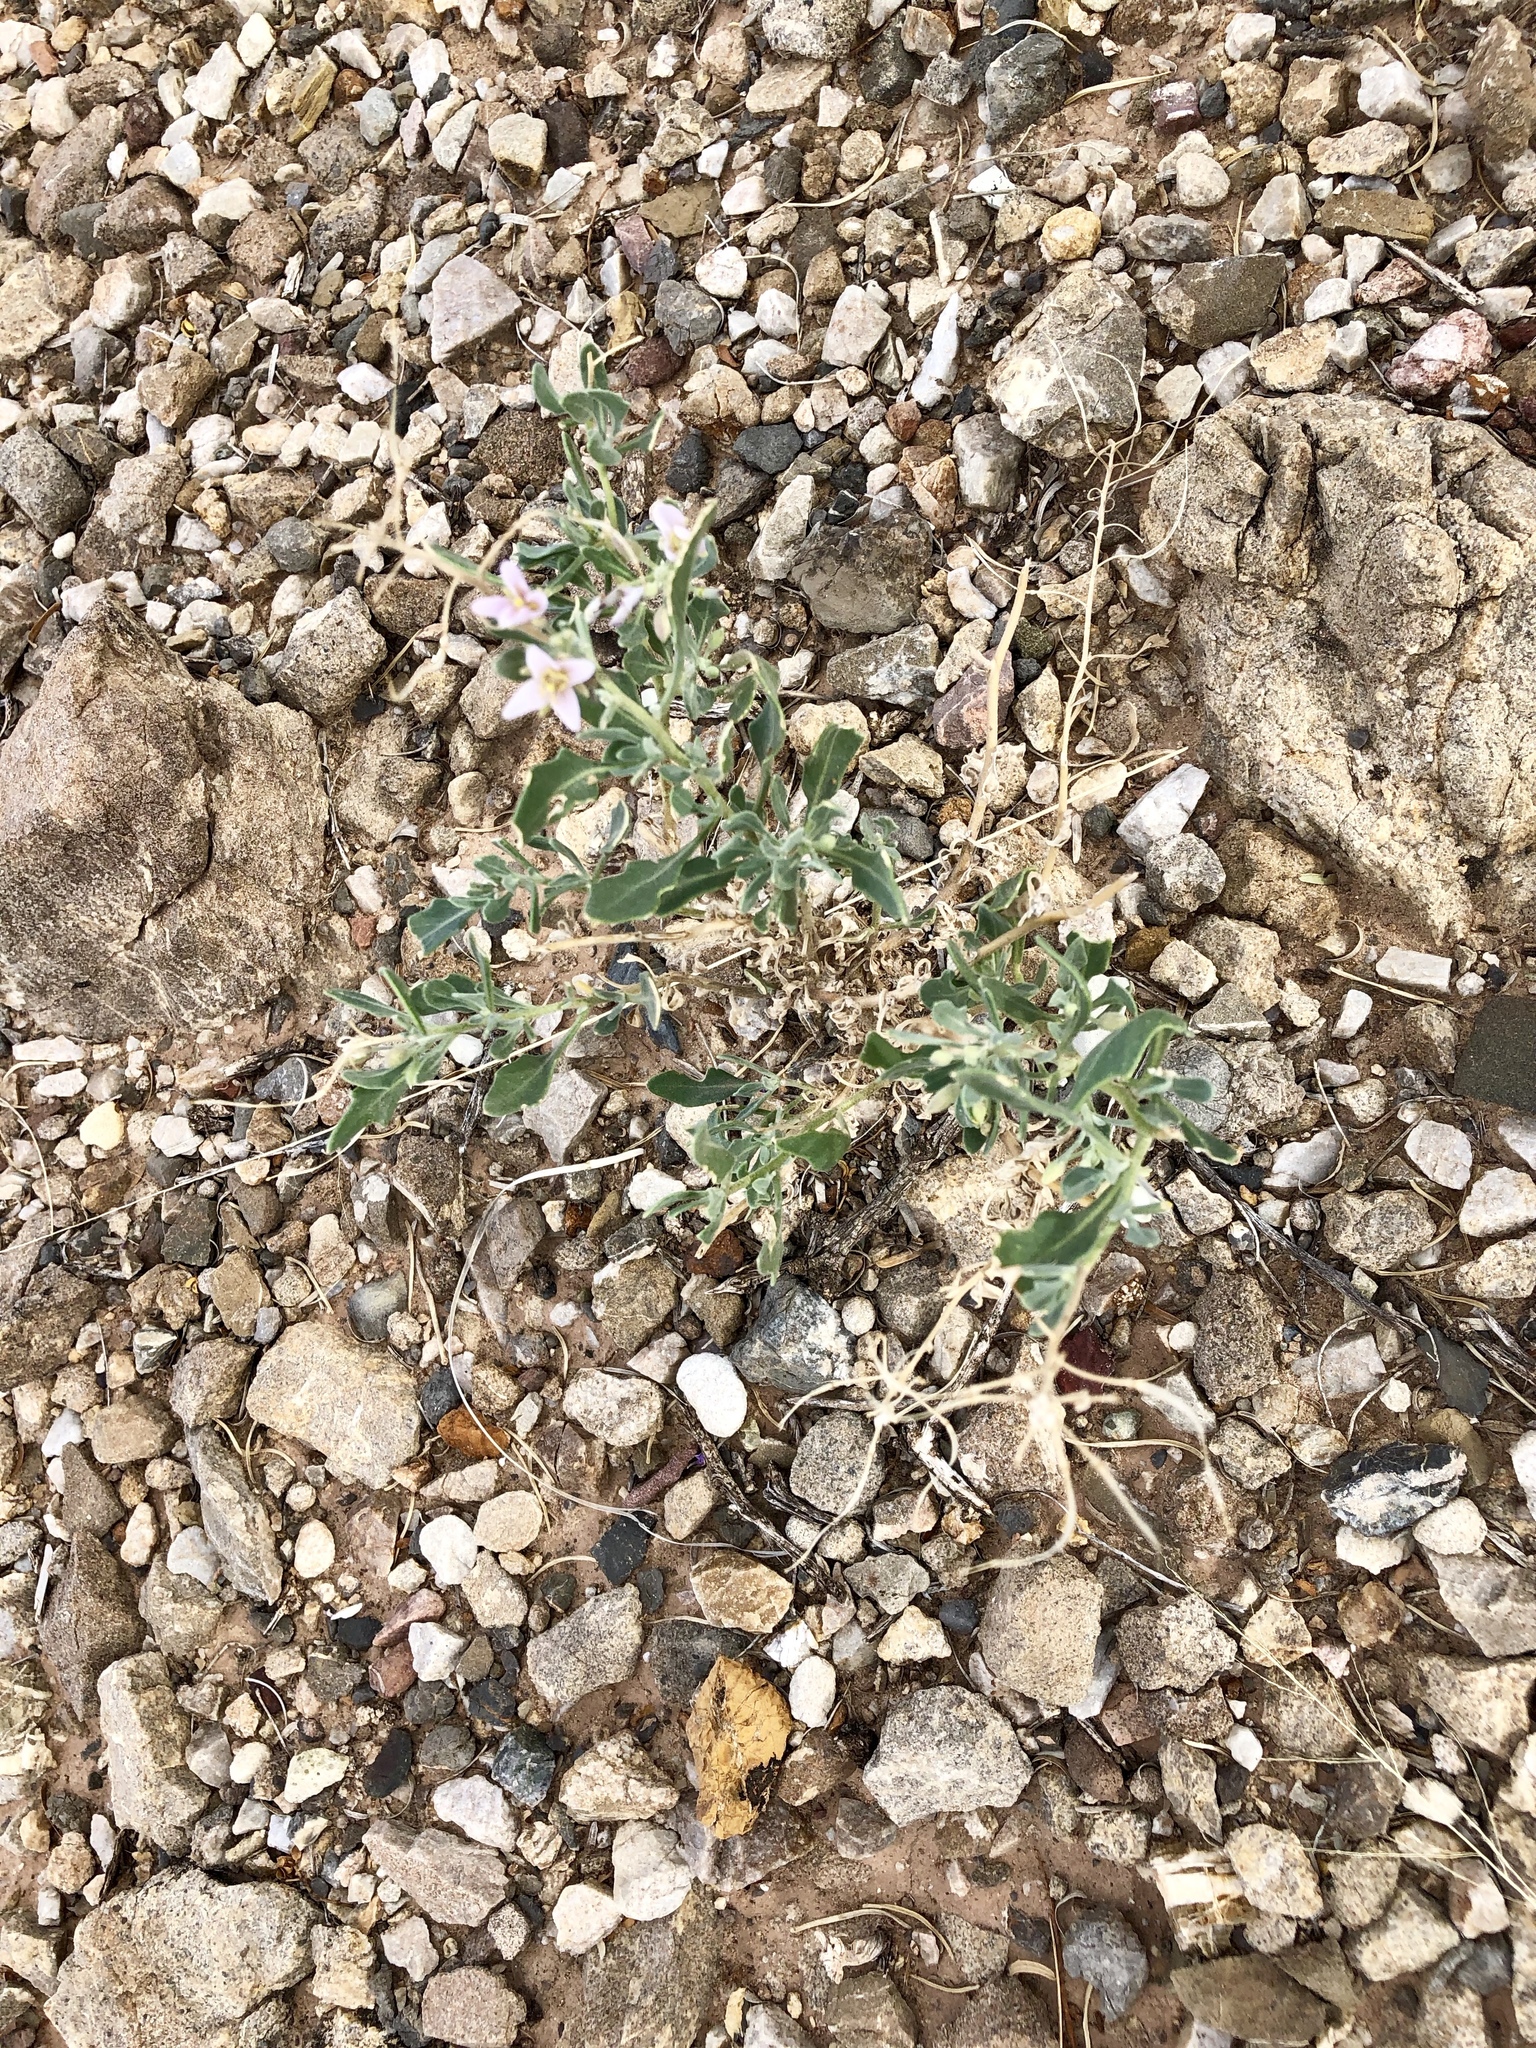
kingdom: Plantae
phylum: Tracheophyta
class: Magnoliopsida
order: Brassicales
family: Brassicaceae
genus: Nerisyrenia
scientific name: Nerisyrenia camporum
